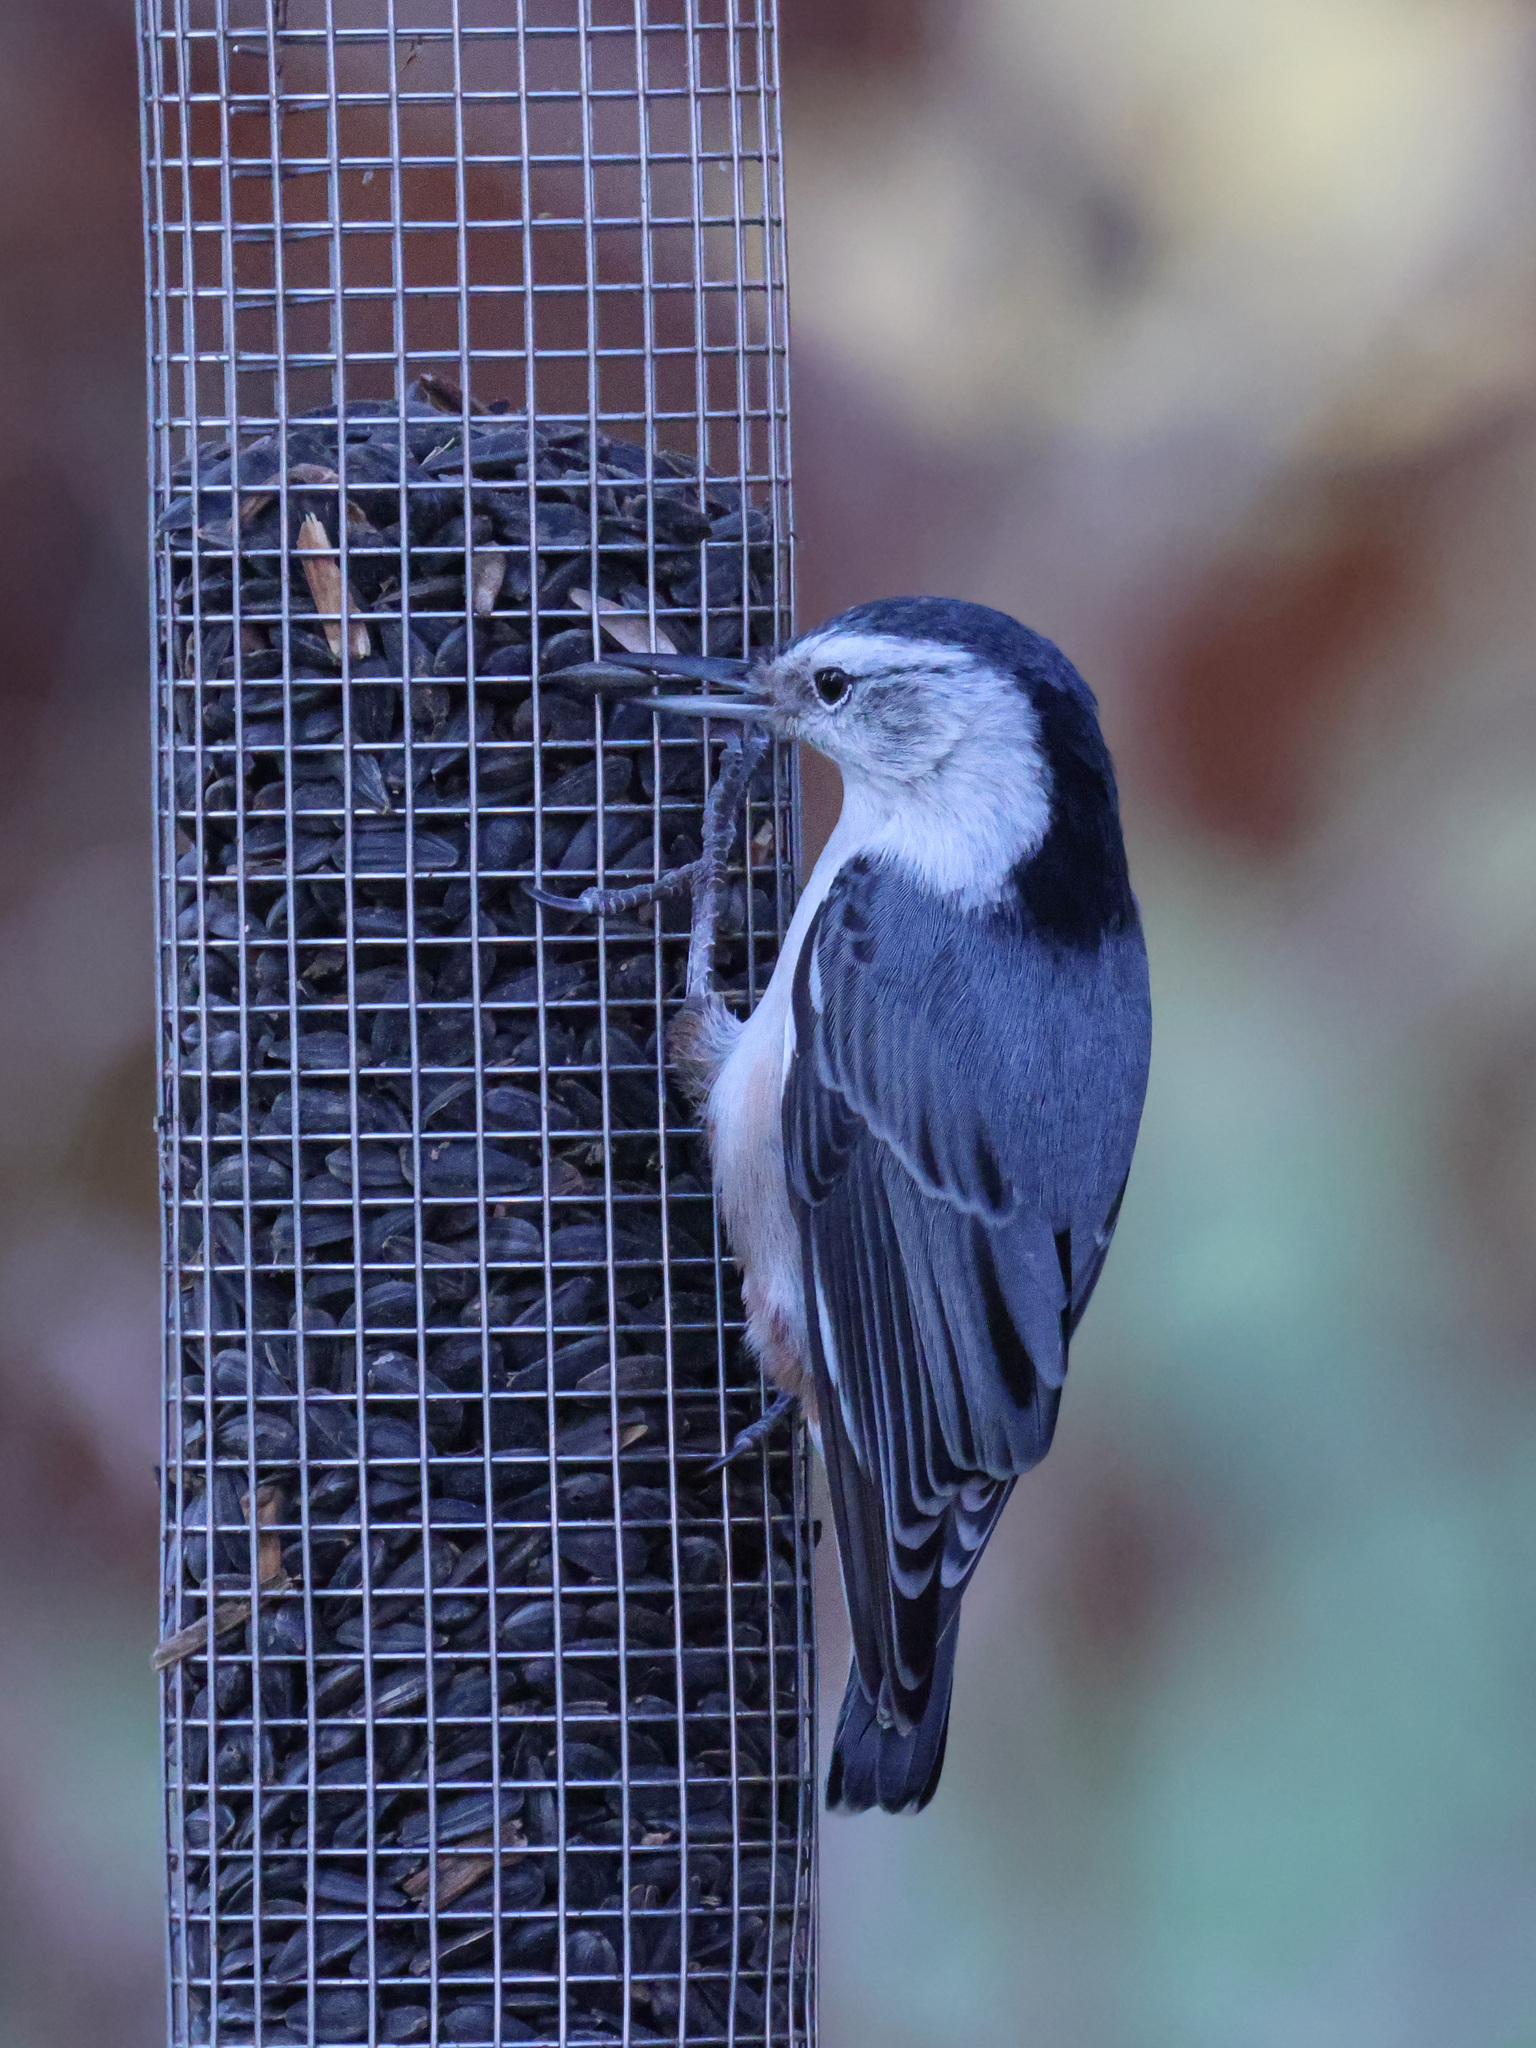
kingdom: Animalia
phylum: Chordata
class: Aves
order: Passeriformes
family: Sittidae
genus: Sitta
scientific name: Sitta carolinensis
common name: White-breasted nuthatch
